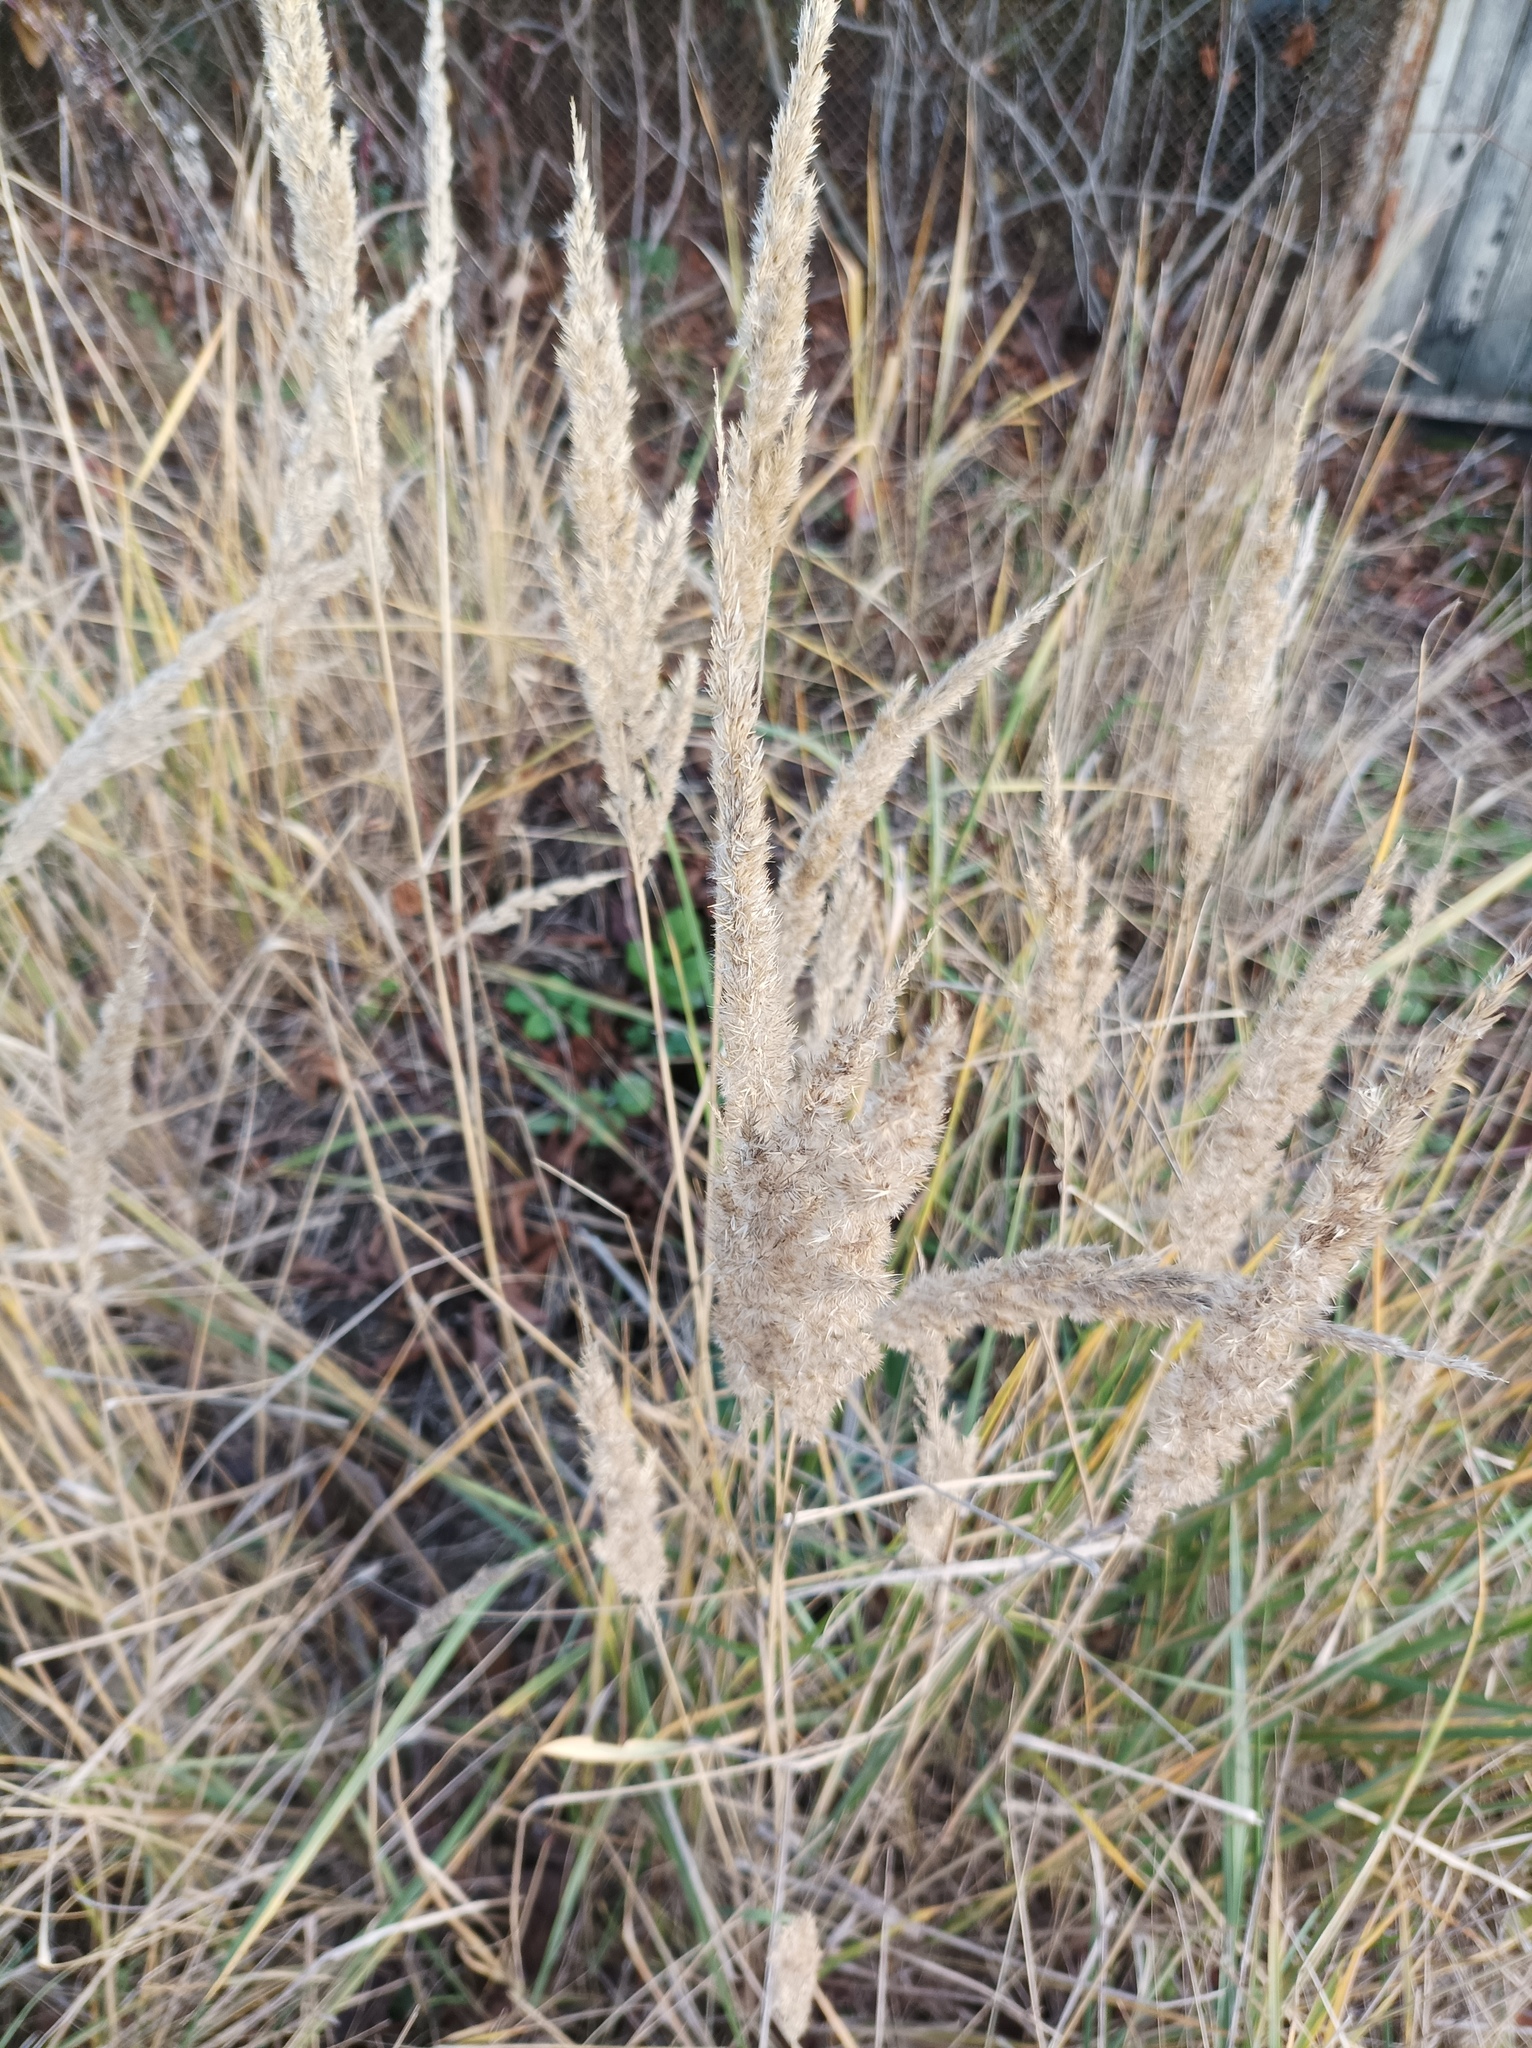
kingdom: Plantae
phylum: Tracheophyta
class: Liliopsida
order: Poales
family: Poaceae
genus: Calamagrostis
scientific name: Calamagrostis epigejos
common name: Wood small-reed
